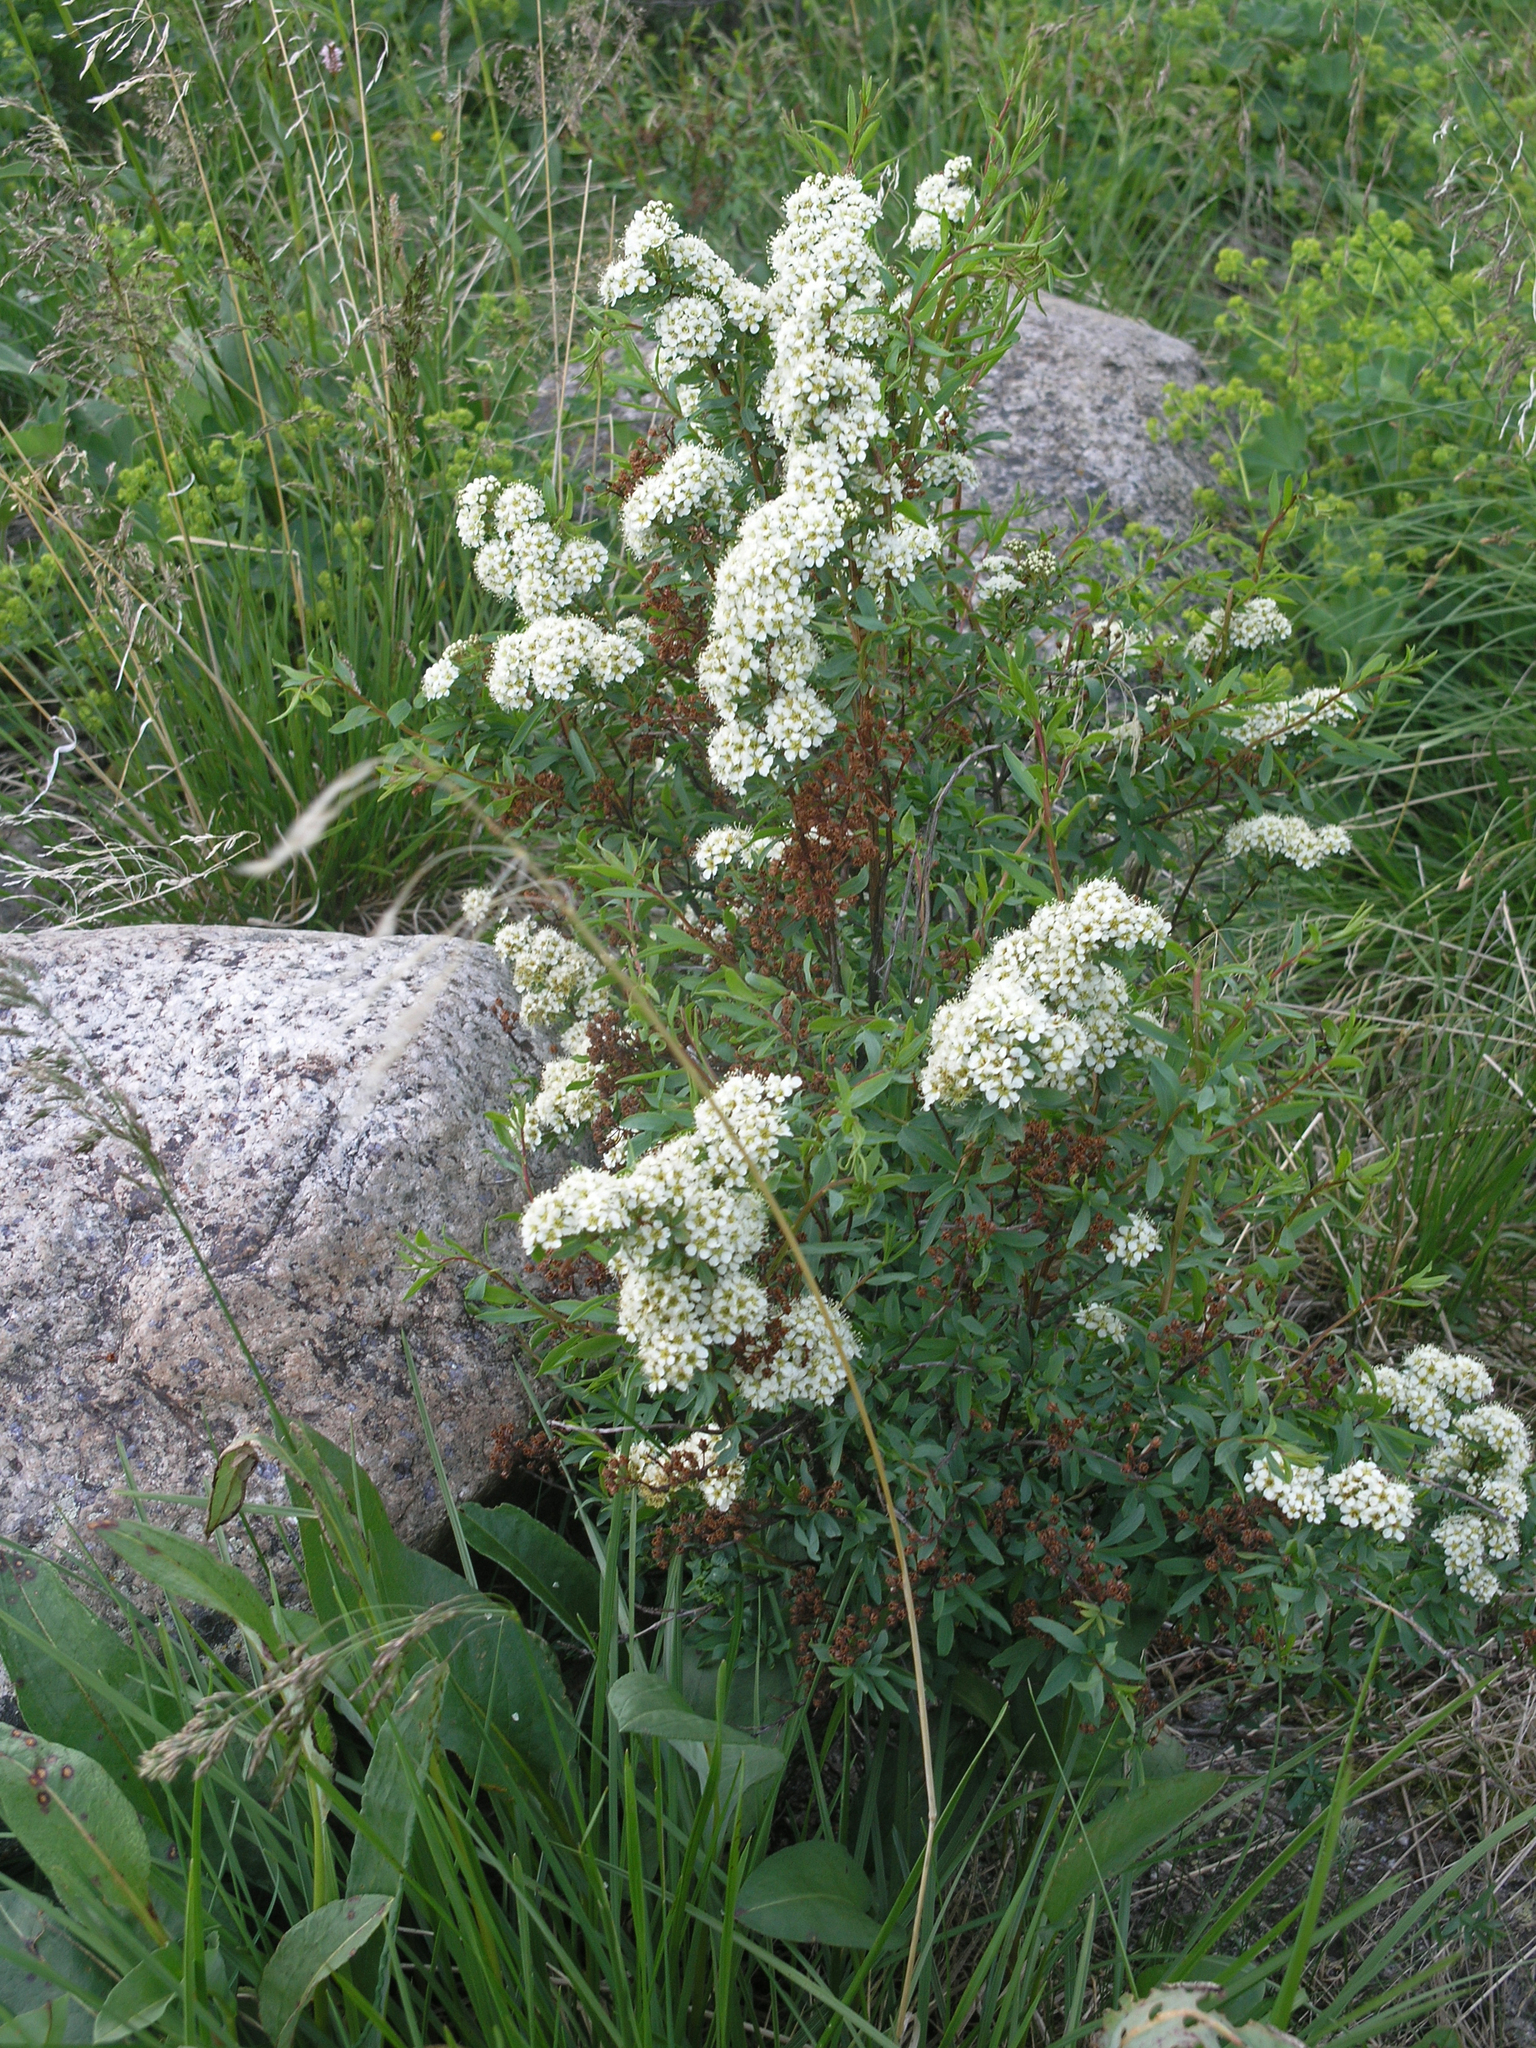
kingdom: Plantae
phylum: Tracheophyta
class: Magnoliopsida
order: Rosales
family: Rosaceae
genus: Spiraea
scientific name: Spiraea alpina
